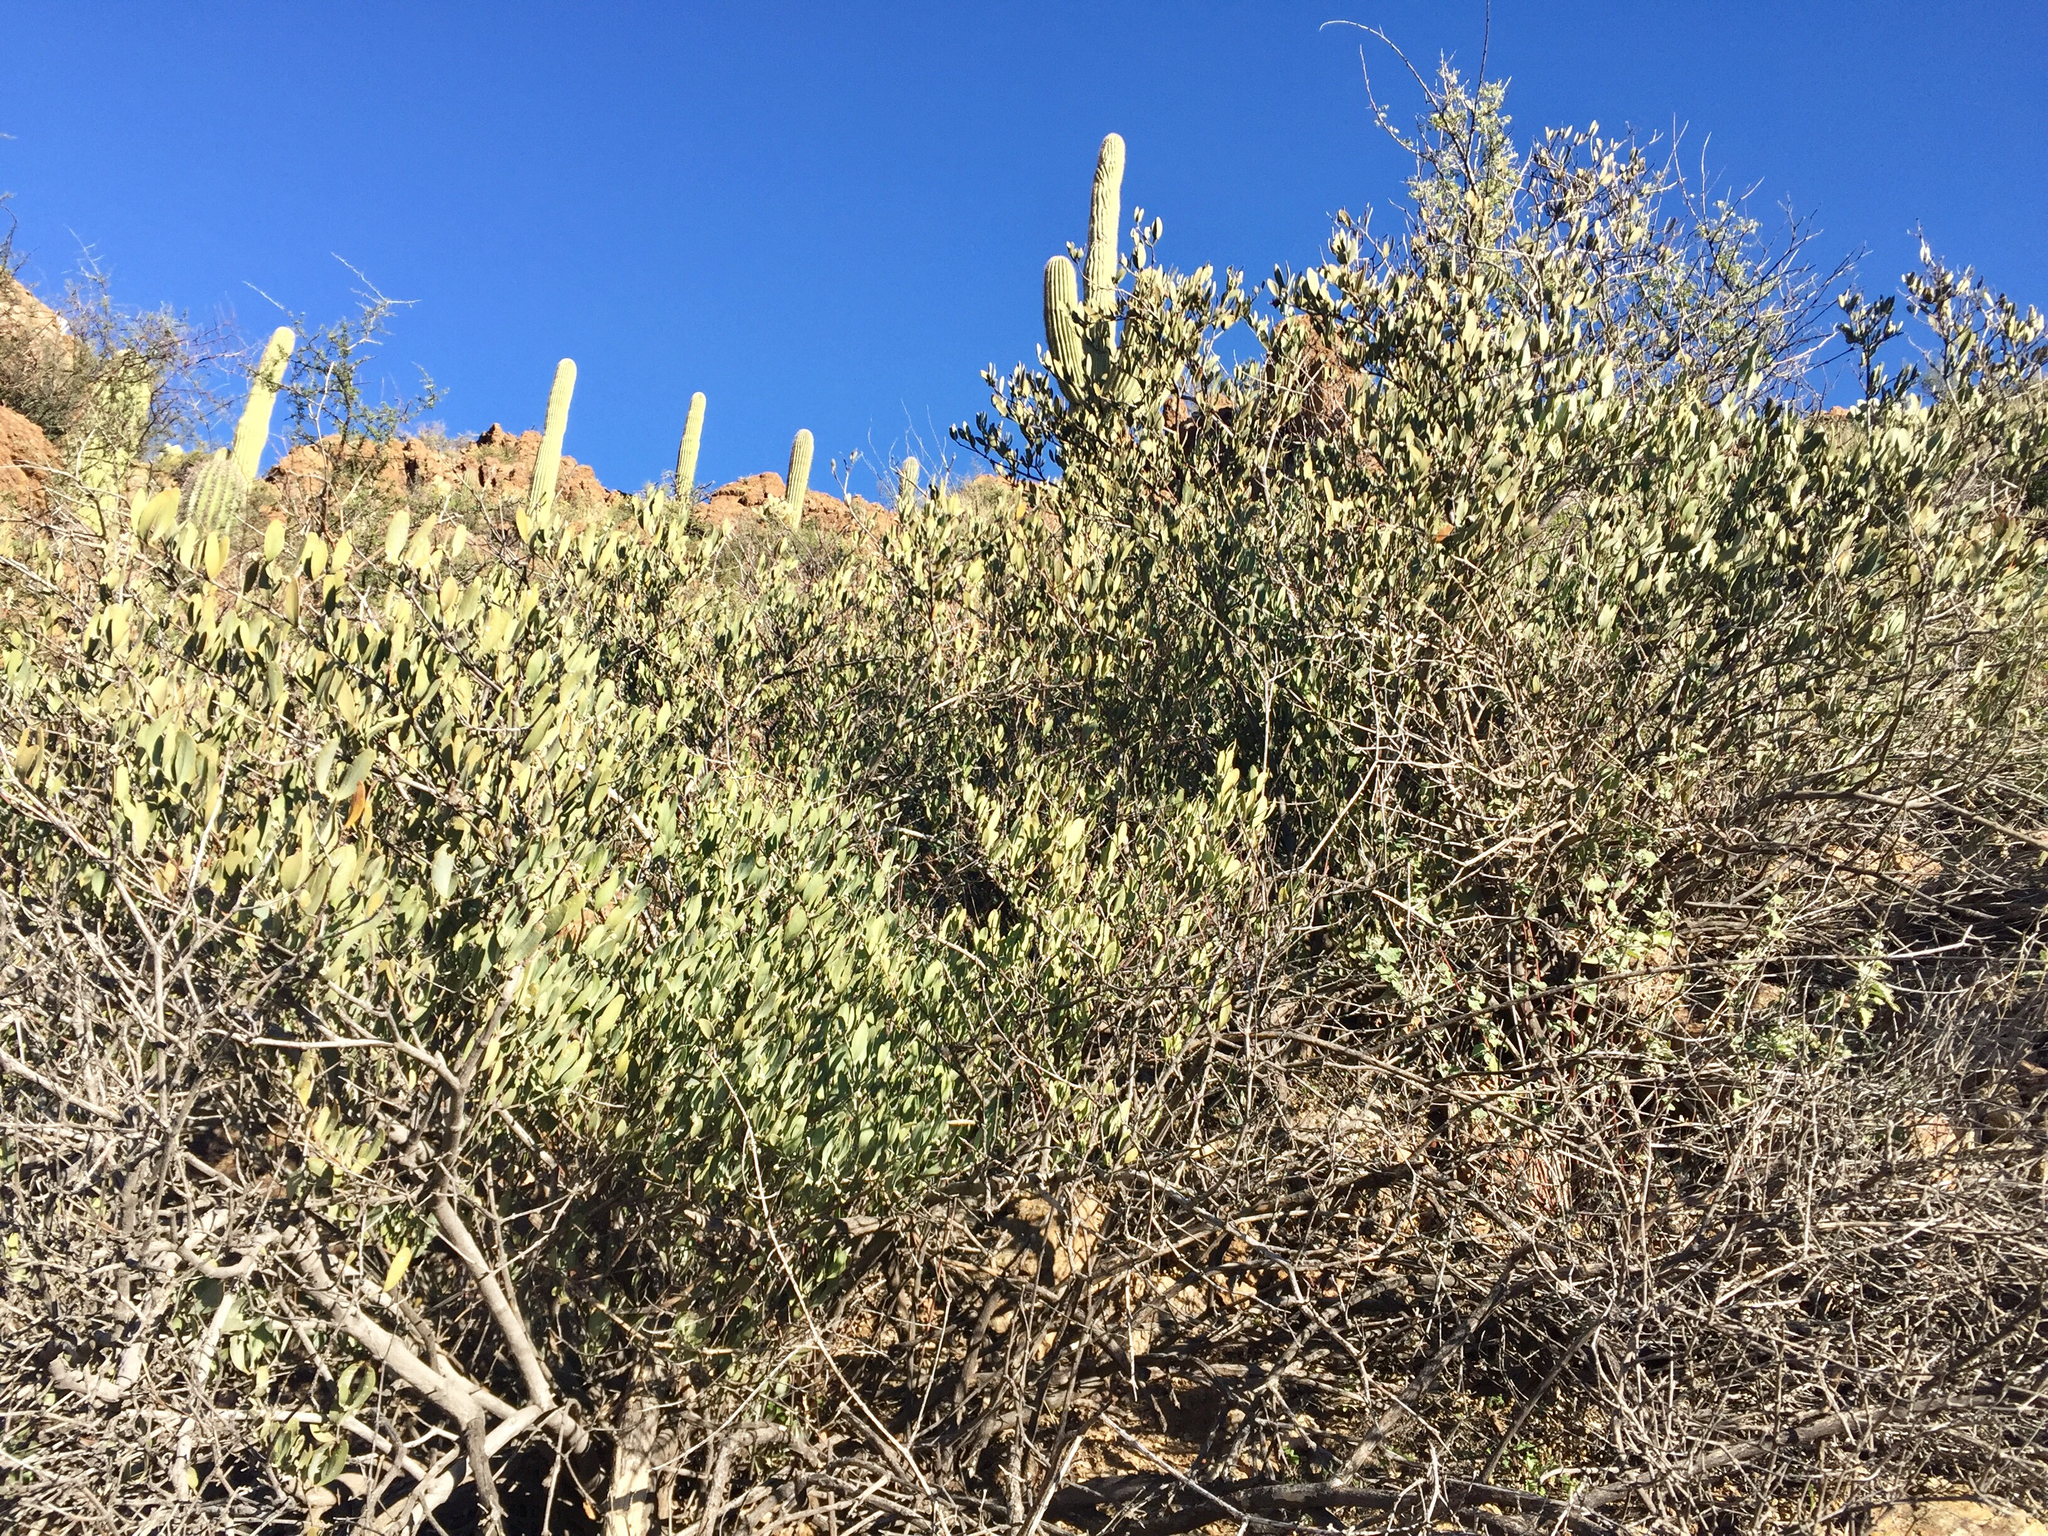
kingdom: Plantae
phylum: Tracheophyta
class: Magnoliopsida
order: Caryophyllales
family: Simmondsiaceae
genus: Simmondsia
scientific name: Simmondsia chinensis
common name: Jojoba
